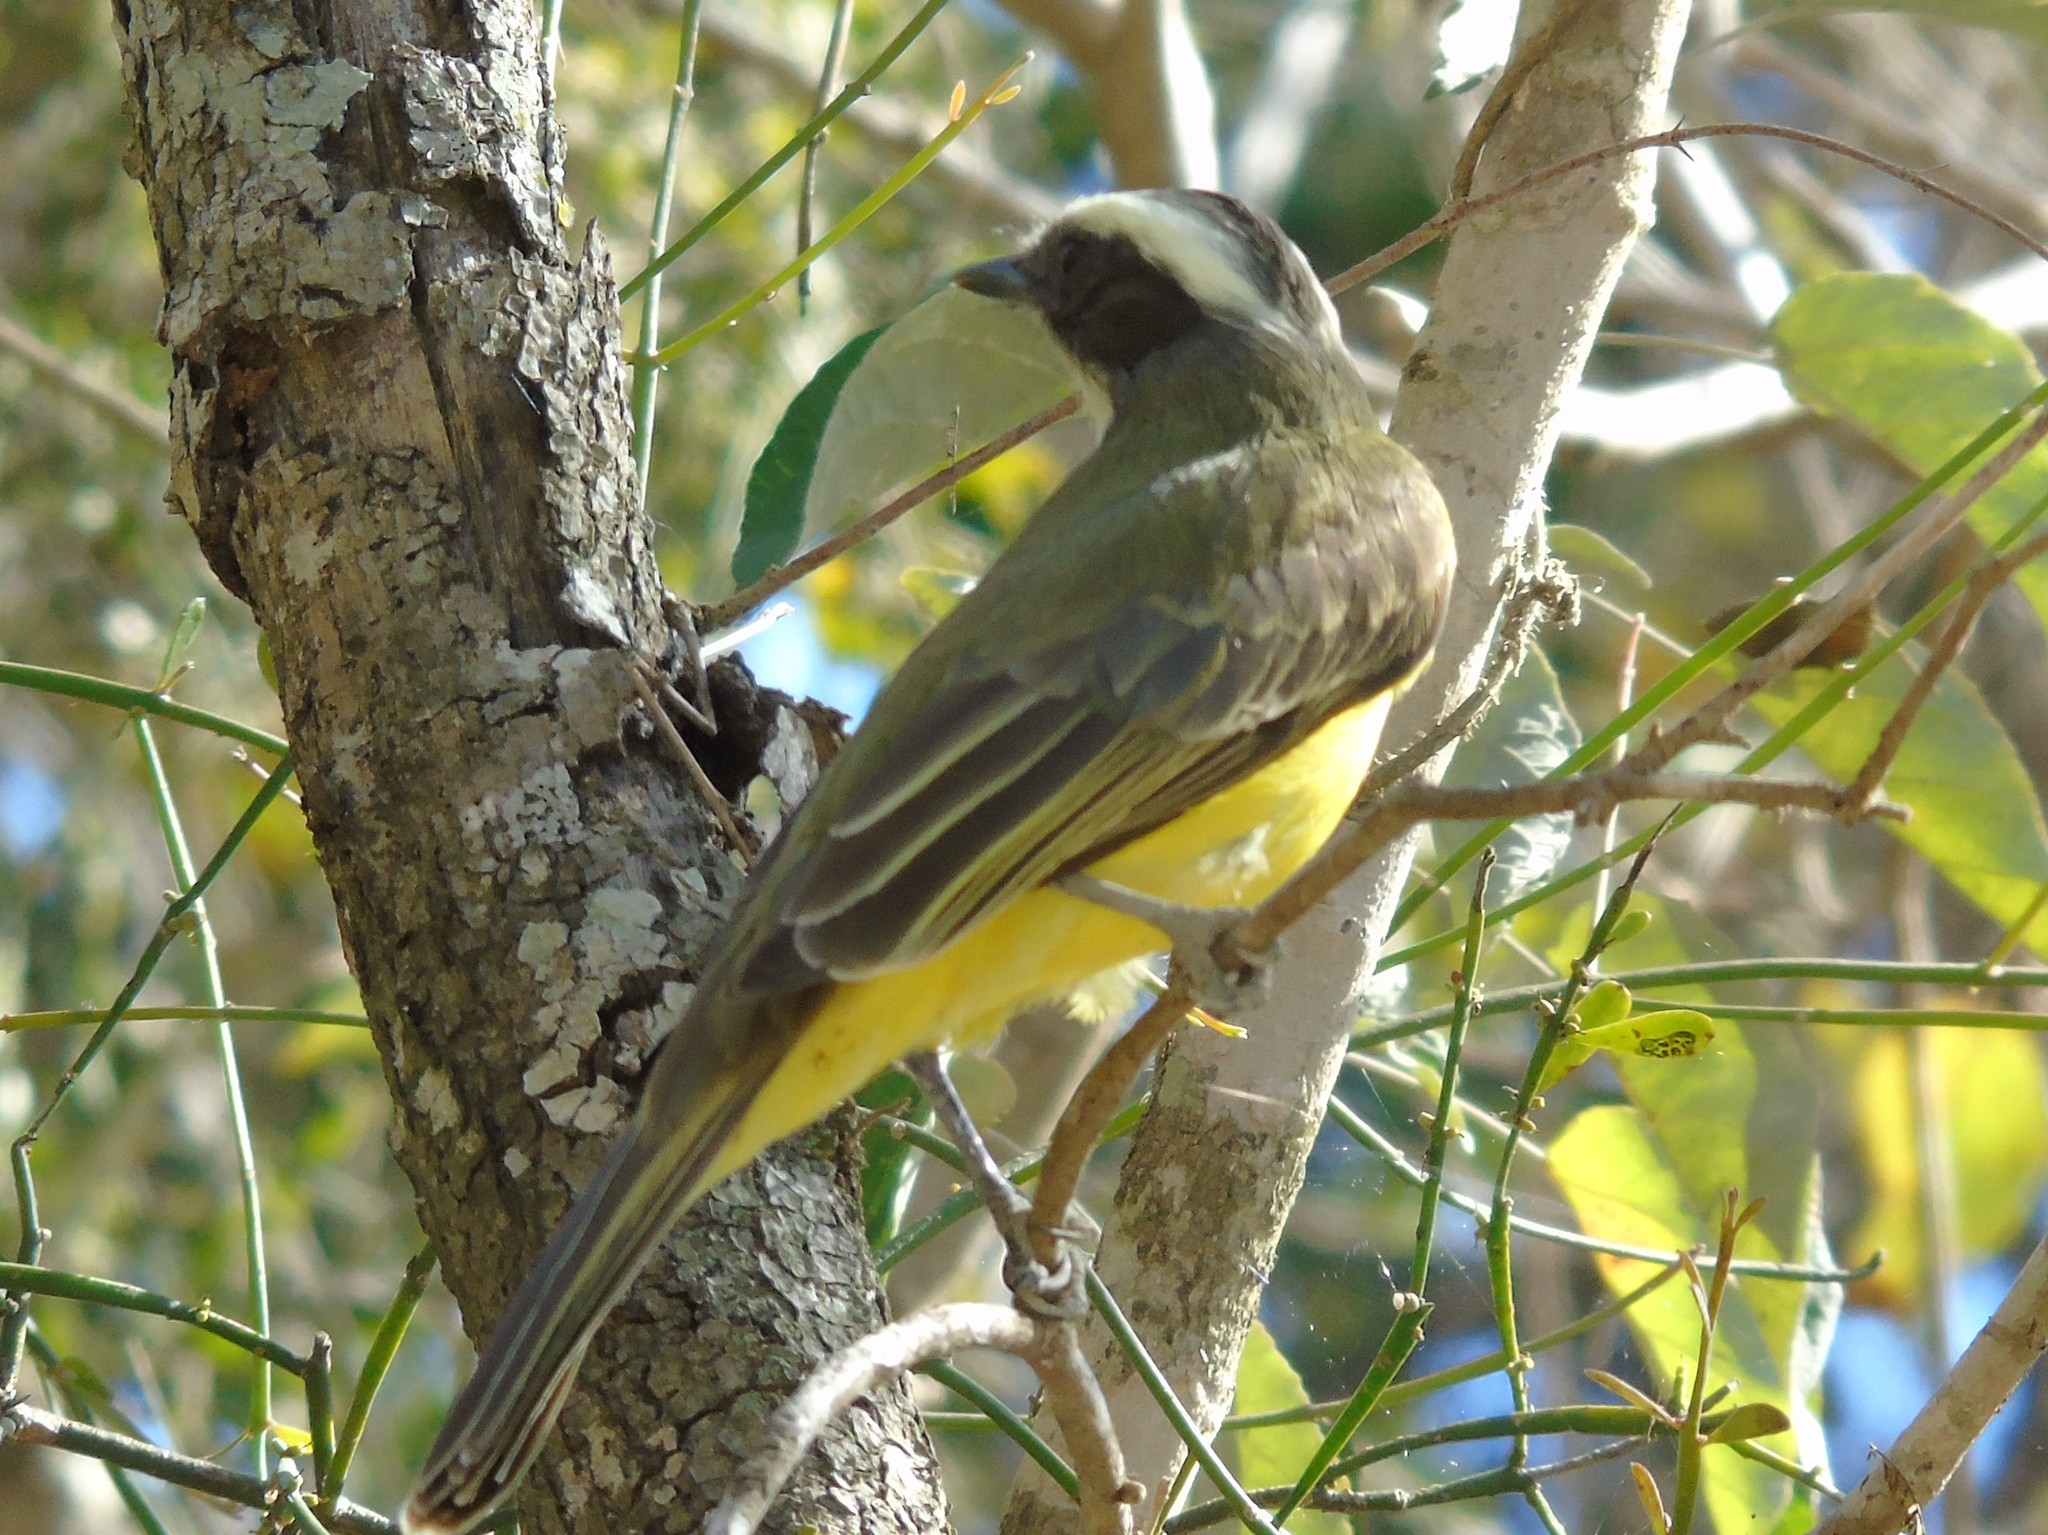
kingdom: Animalia
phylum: Chordata
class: Aves
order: Passeriformes
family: Tyrannidae
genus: Myiozetetes
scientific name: Myiozetetes similis
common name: Social flycatcher
